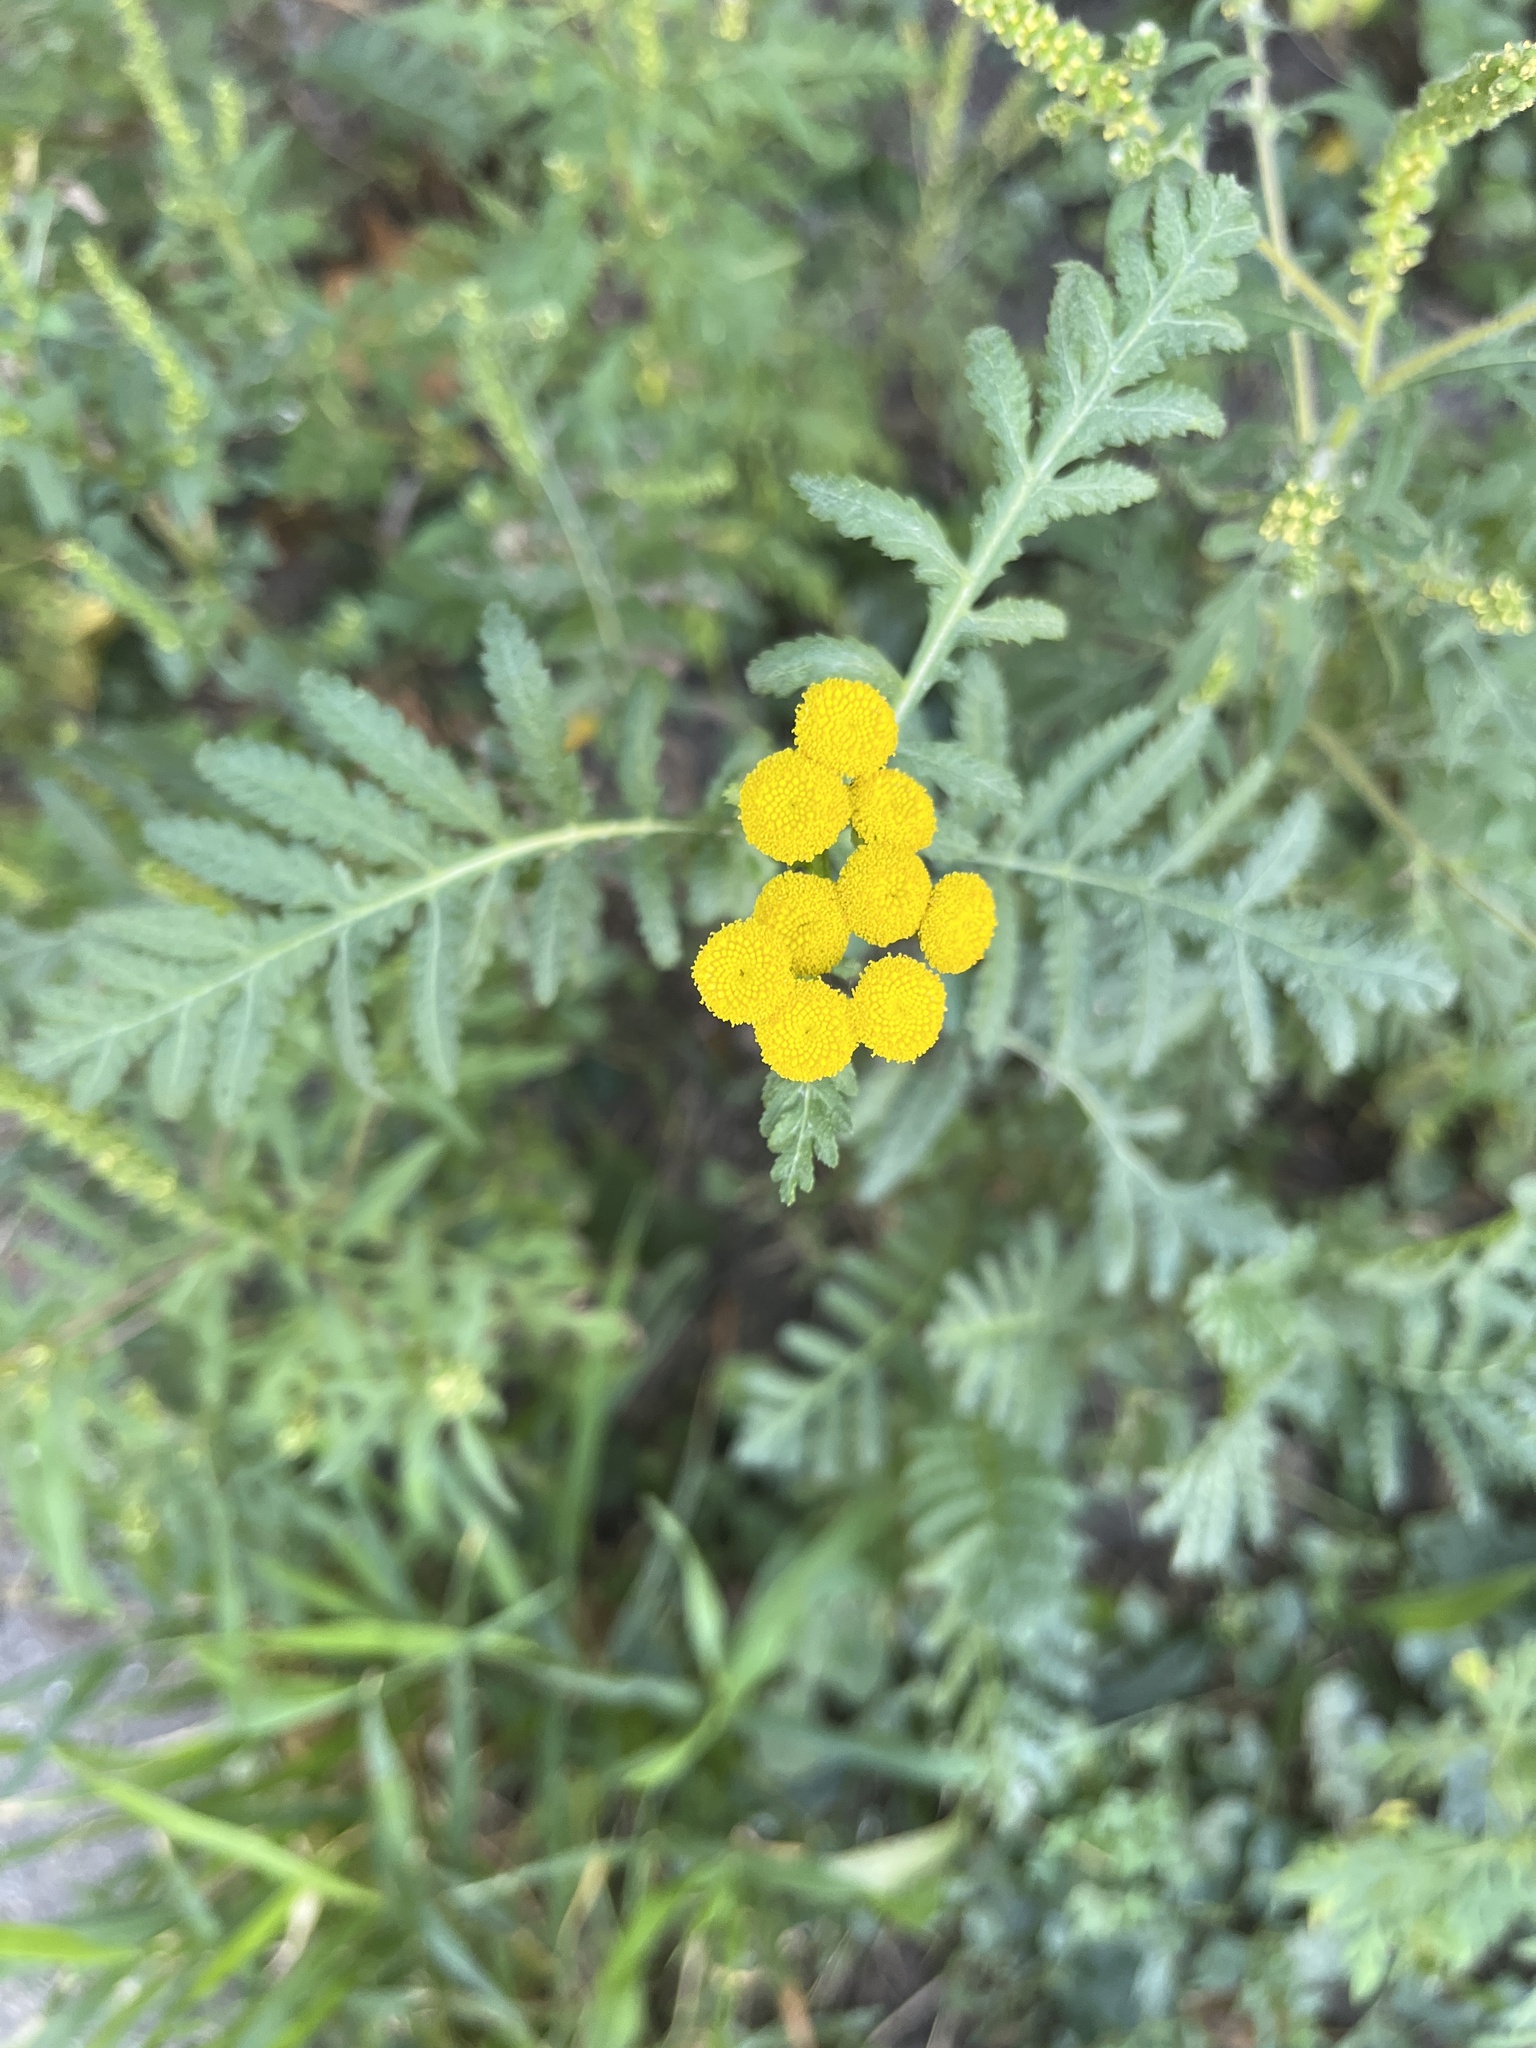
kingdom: Plantae
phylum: Tracheophyta
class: Magnoliopsida
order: Asterales
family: Asteraceae
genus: Tanacetum
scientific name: Tanacetum vulgare
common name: Common tansy
